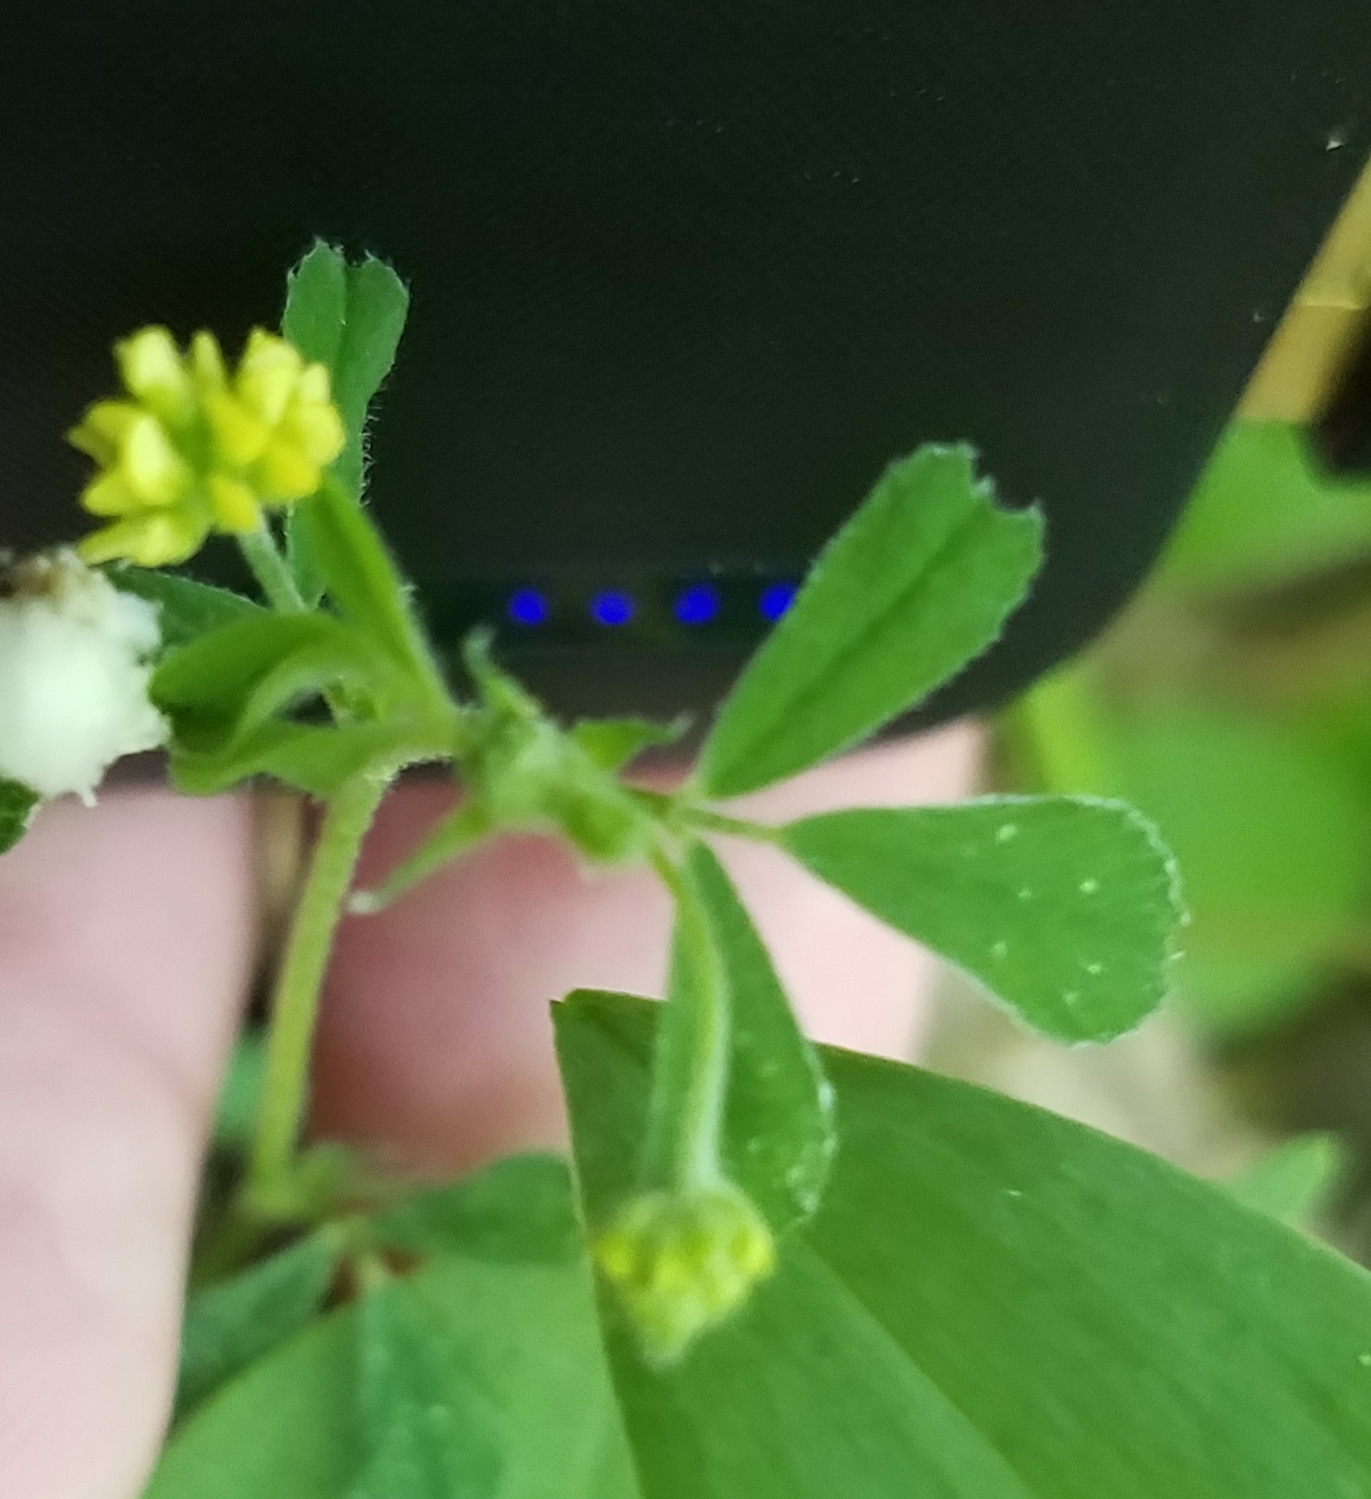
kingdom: Plantae
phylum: Tracheophyta
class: Magnoliopsida
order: Fabales
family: Fabaceae
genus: Medicago
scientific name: Medicago lupulina
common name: Black medick
